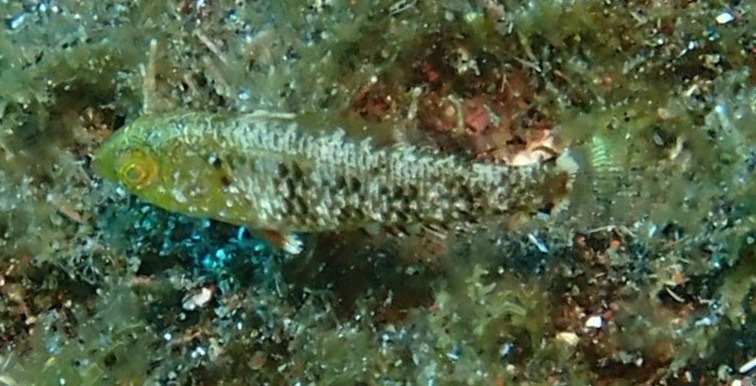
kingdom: Animalia
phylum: Chordata
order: Perciformes
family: Scaridae
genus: Sparisoma
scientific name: Sparisoma cretense
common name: Parrotfish
